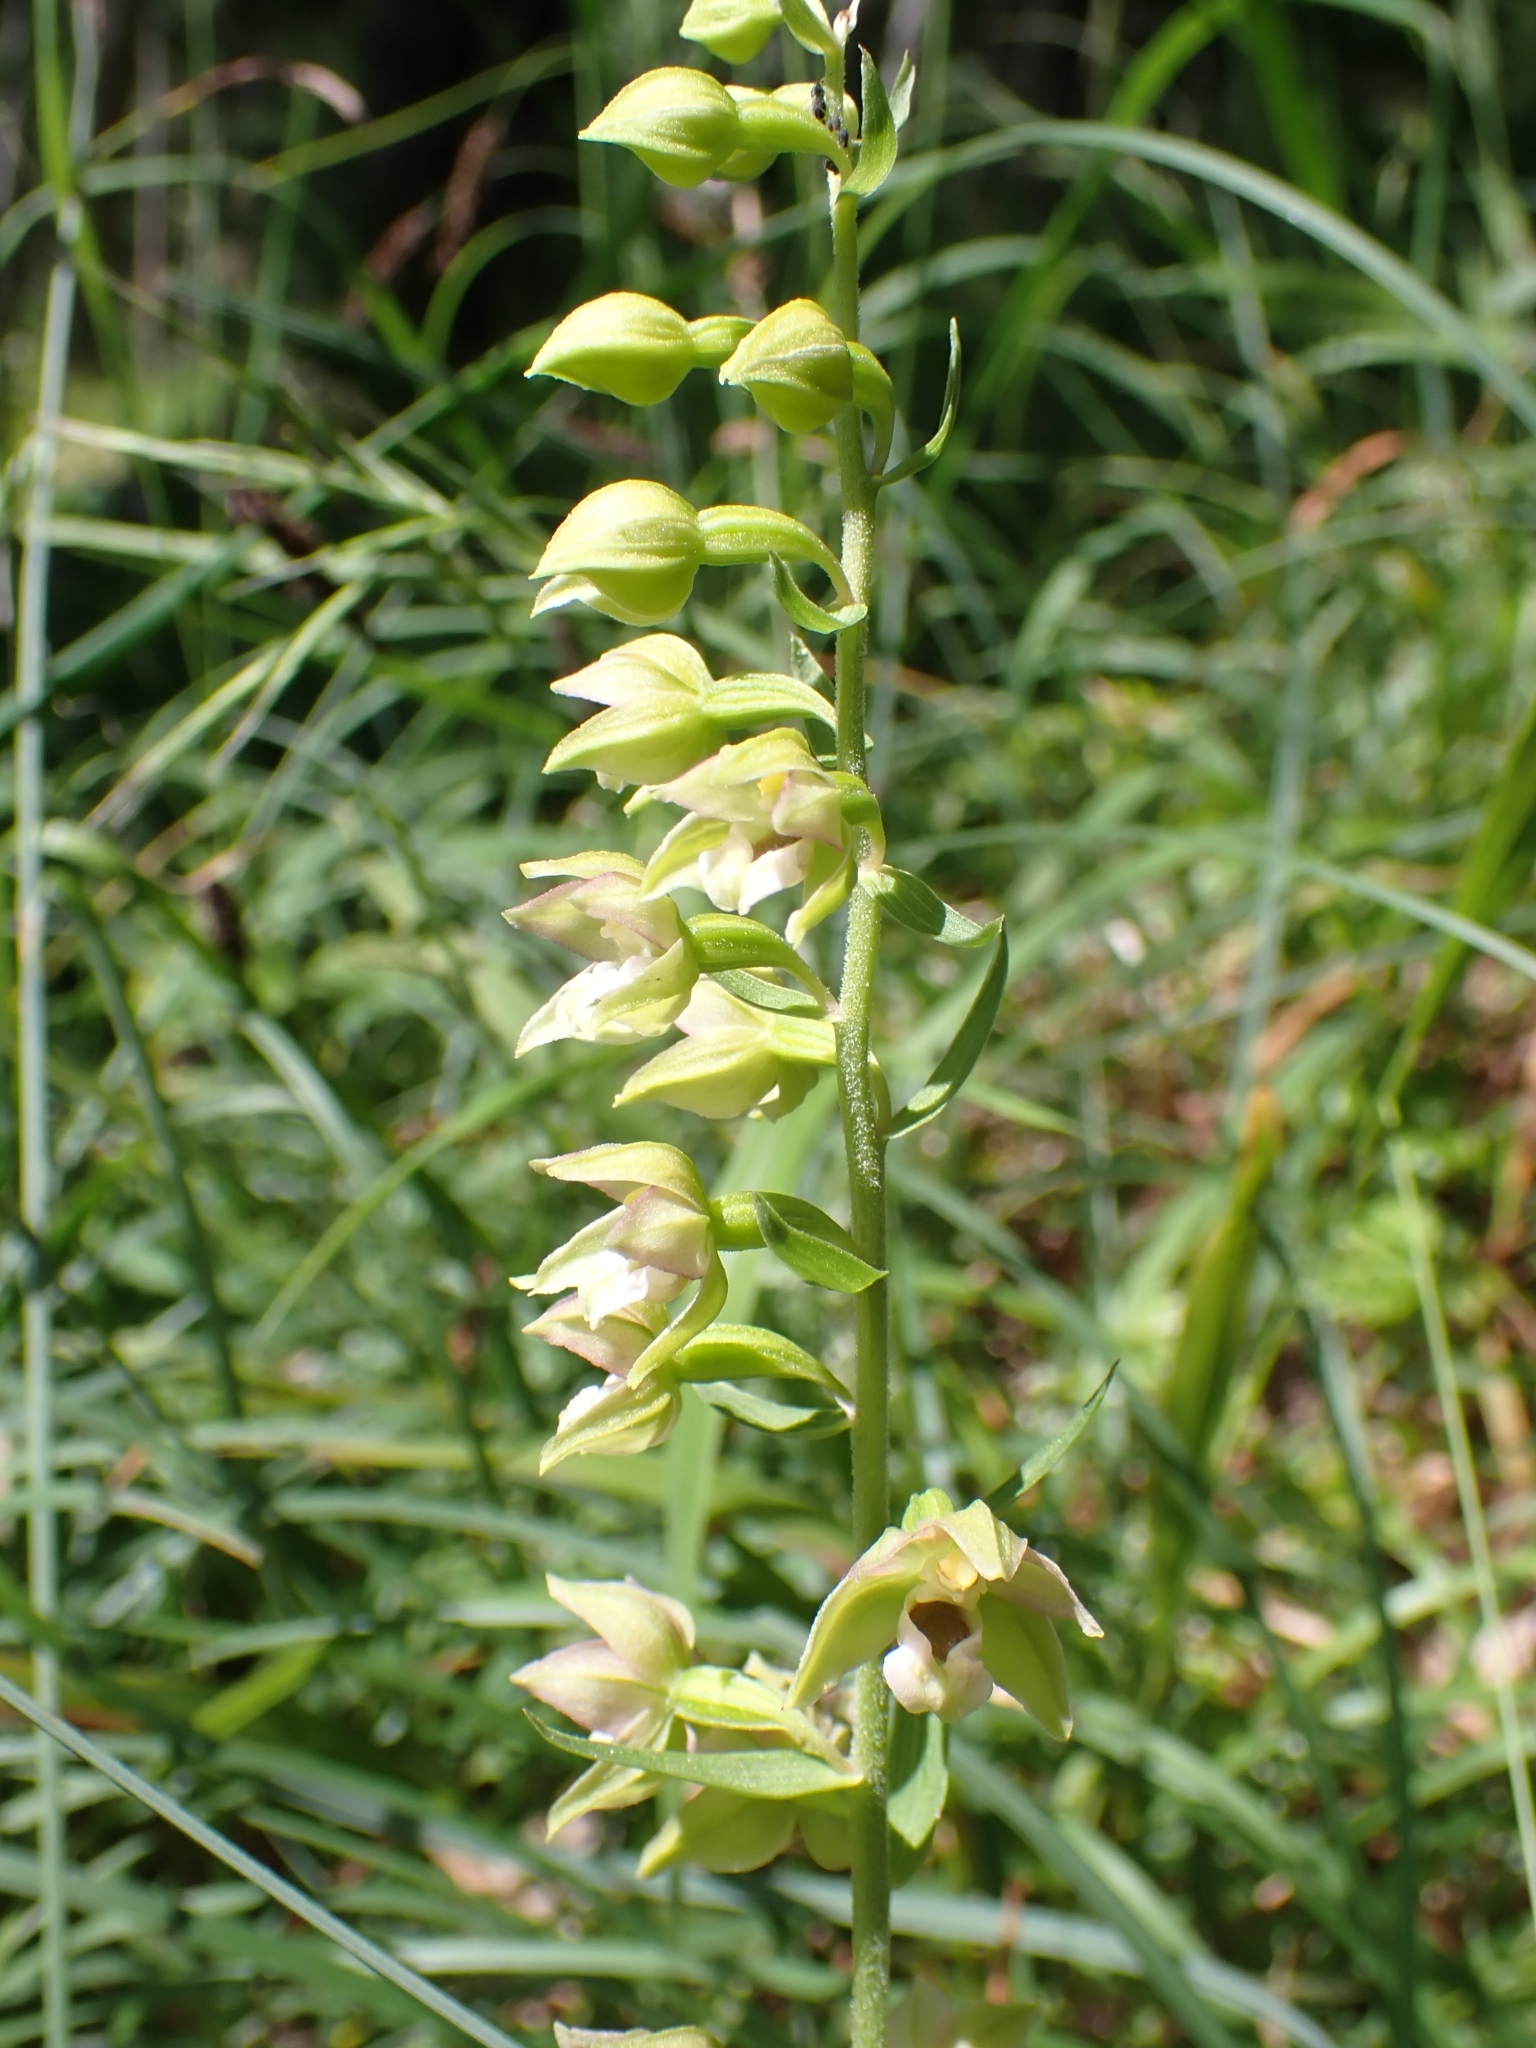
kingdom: Plantae
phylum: Tracheophyta
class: Liliopsida
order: Asparagales
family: Orchidaceae
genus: Epipactis
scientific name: Epipactis helleborine
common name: Broad-leaved helleborine
